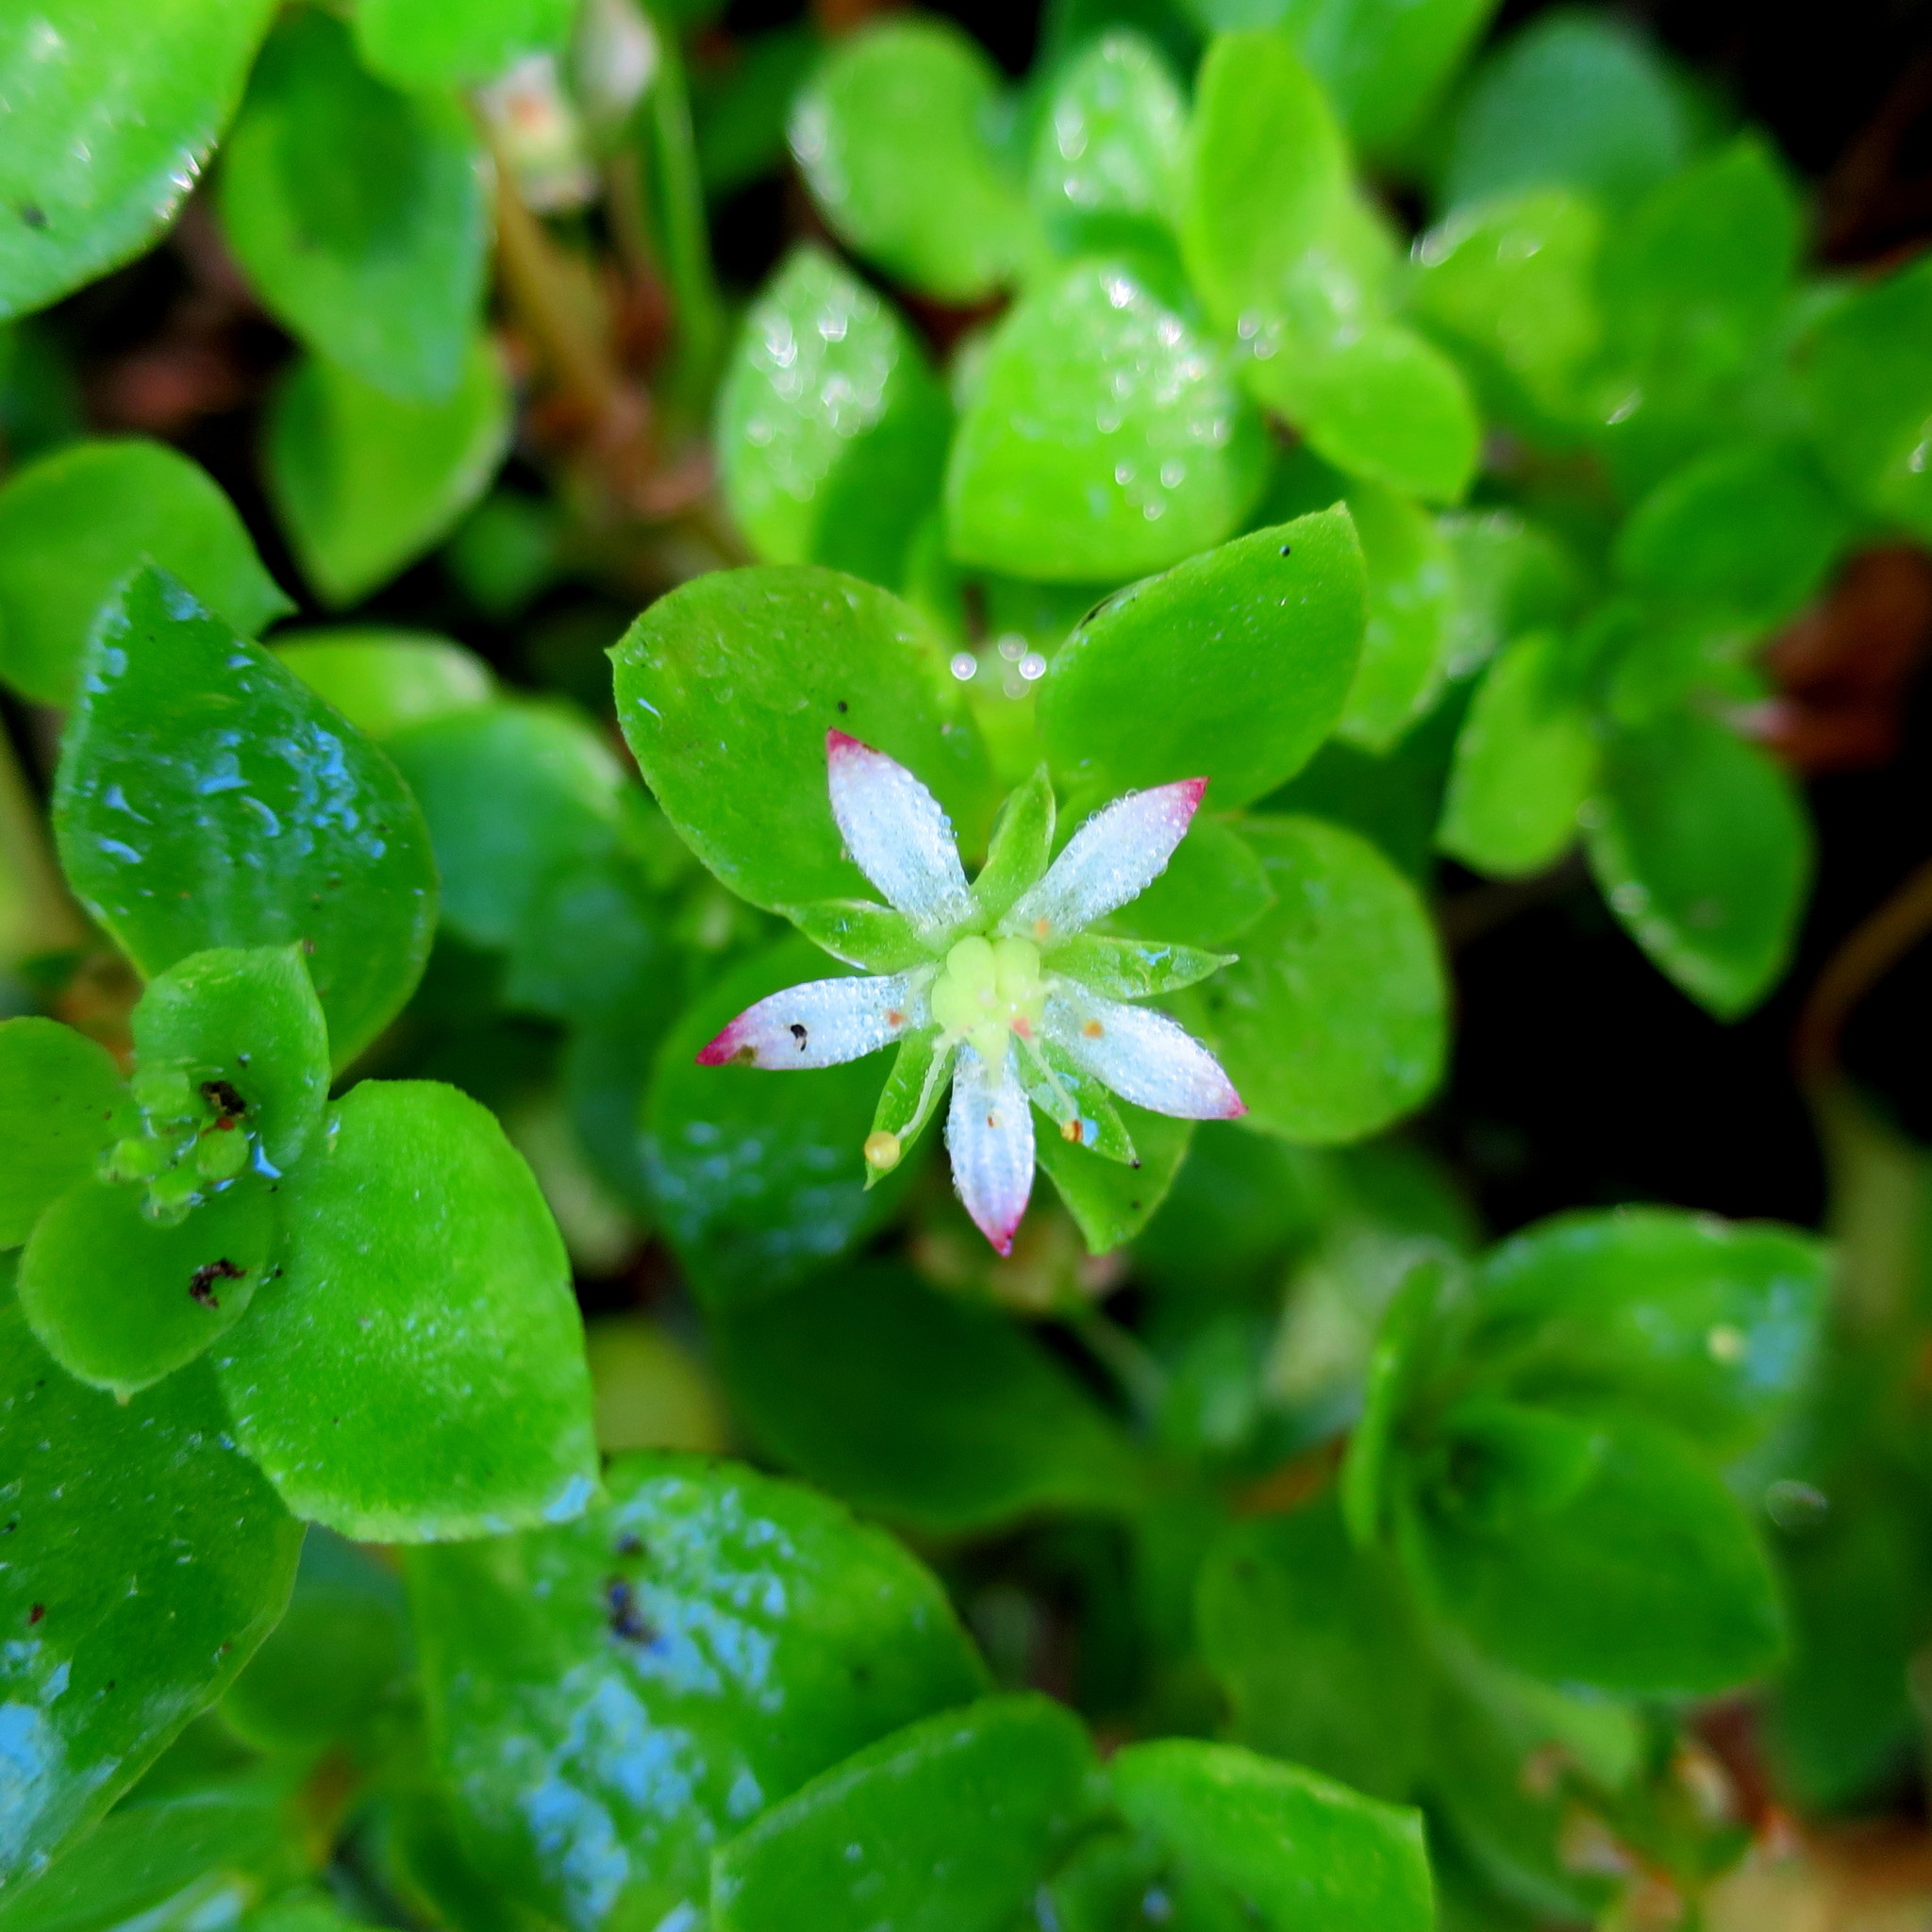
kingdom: Plantae
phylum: Tracheophyta
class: Magnoliopsida
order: Saxifragales
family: Crassulaceae
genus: Crassula
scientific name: Crassula pellucida
